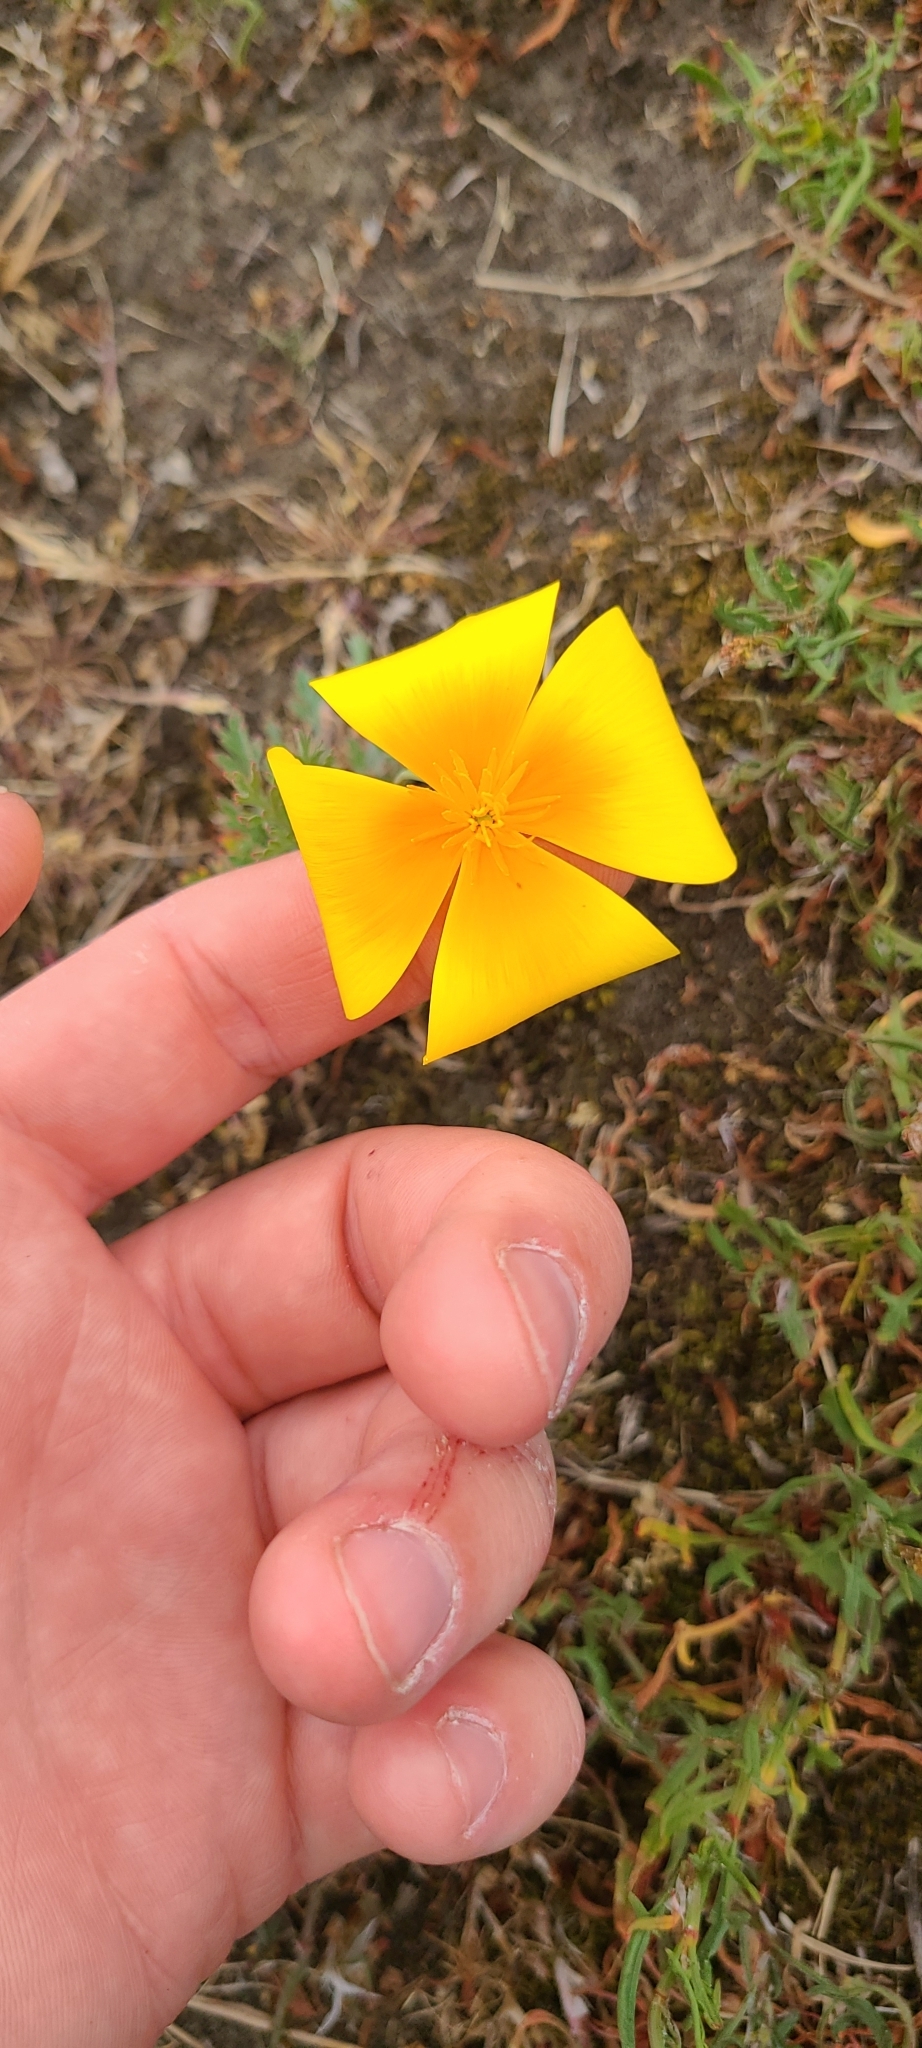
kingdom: Plantae
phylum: Tracheophyta
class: Magnoliopsida
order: Ranunculales
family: Papaveraceae
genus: Eschscholzia
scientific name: Eschscholzia californica
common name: California poppy
